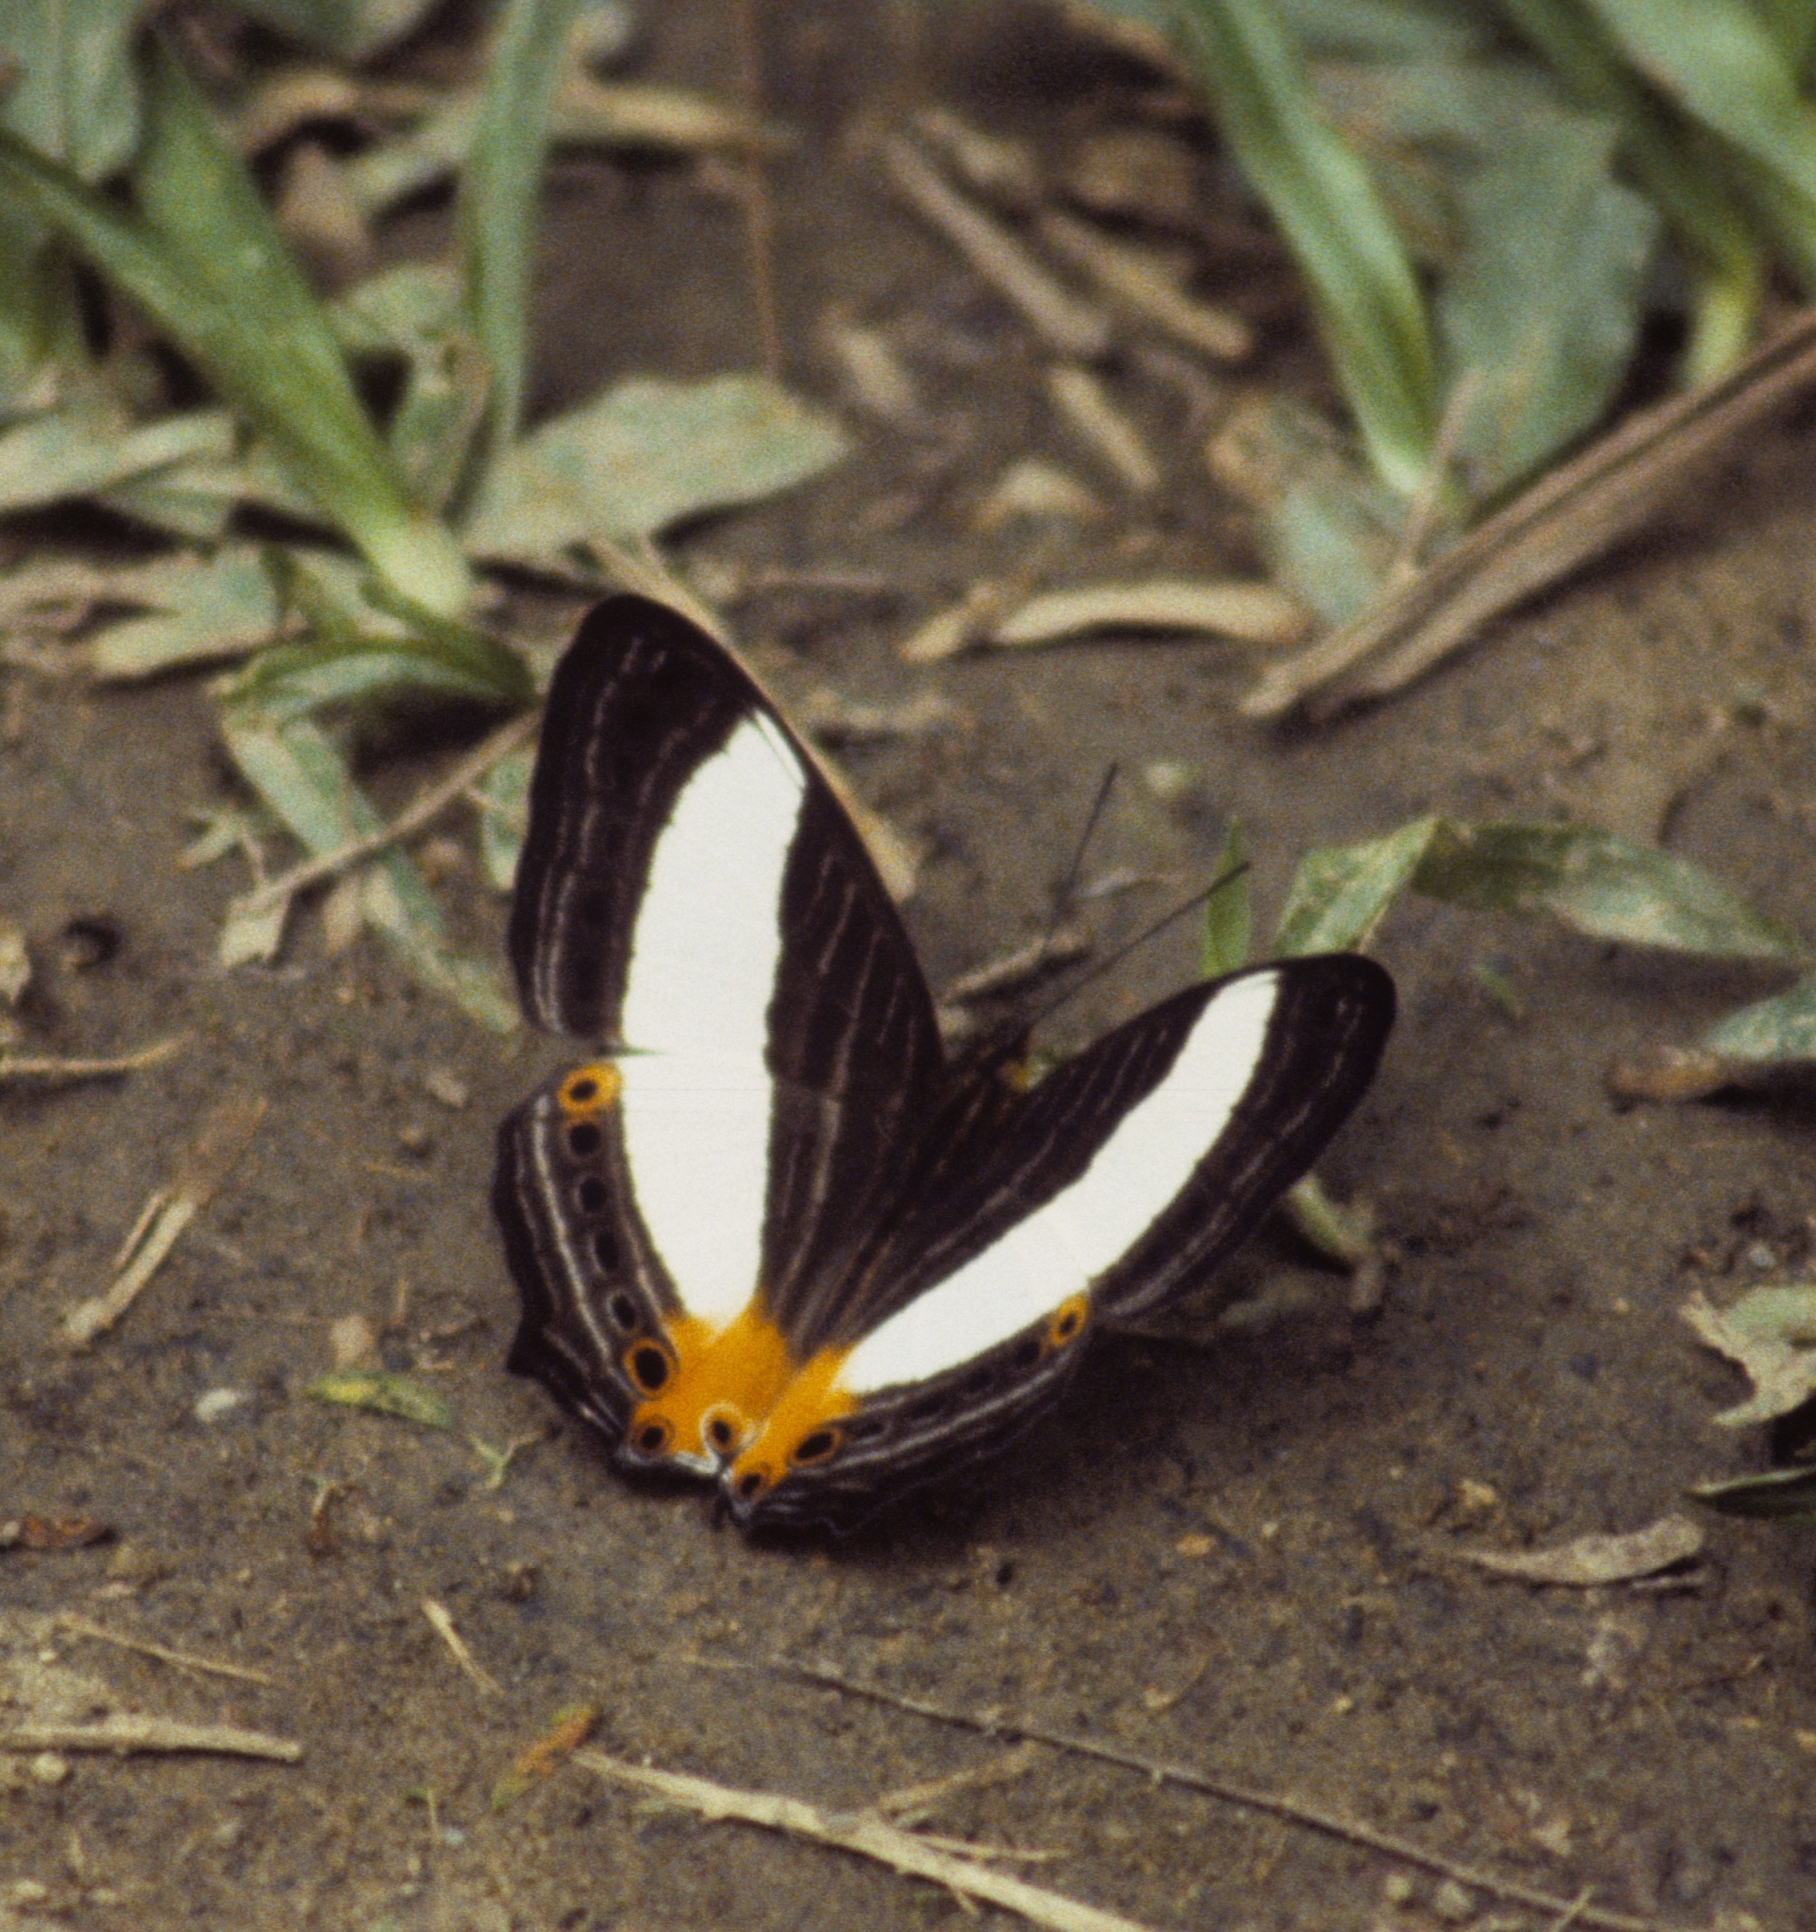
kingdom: Animalia
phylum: Arthropoda
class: Insecta
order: Lepidoptera
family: Nymphalidae
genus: Cyrestis
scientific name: Cyrestis acilia
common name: Godart's map butterfly
